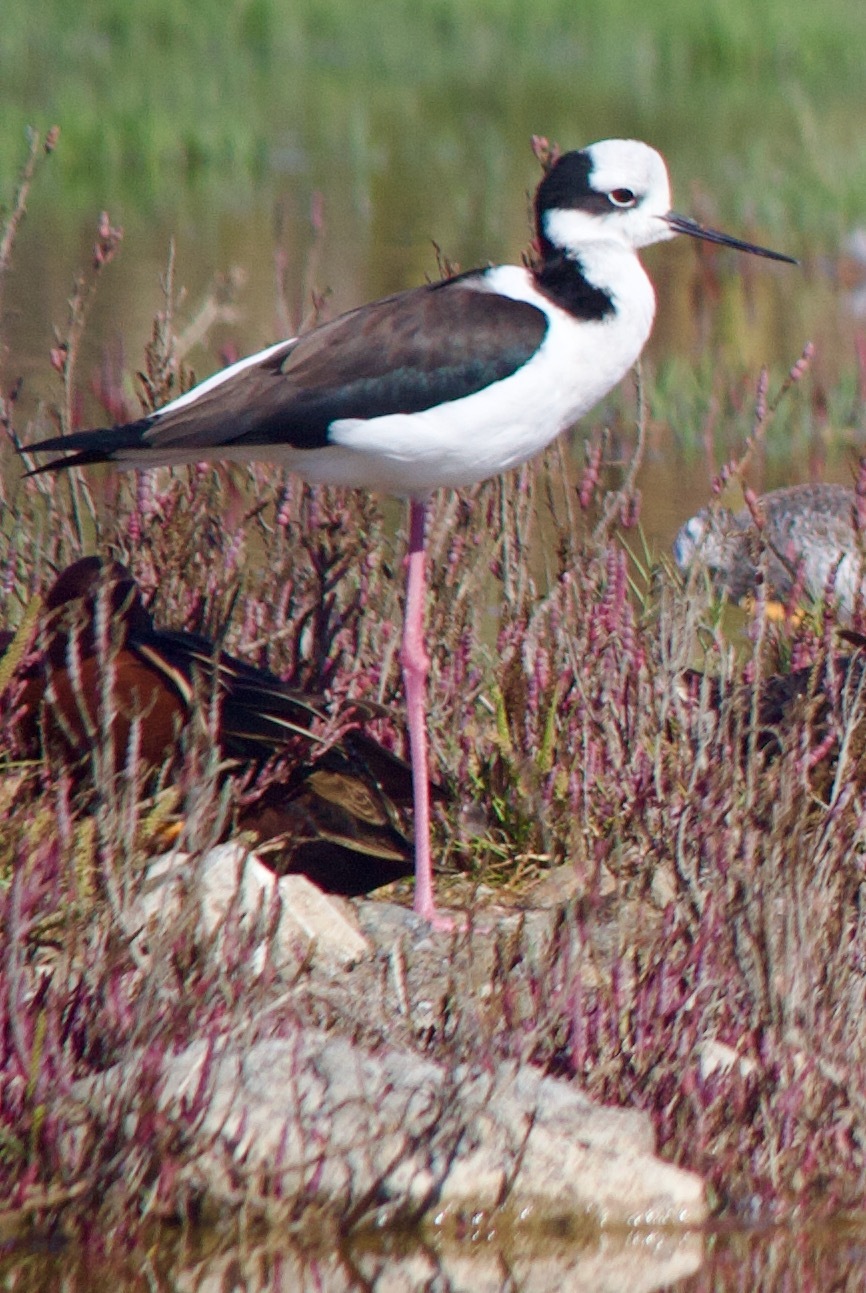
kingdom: Animalia
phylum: Chordata
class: Aves
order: Charadriiformes
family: Recurvirostridae
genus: Himantopus
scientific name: Himantopus mexicanus
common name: Black-necked stilt
